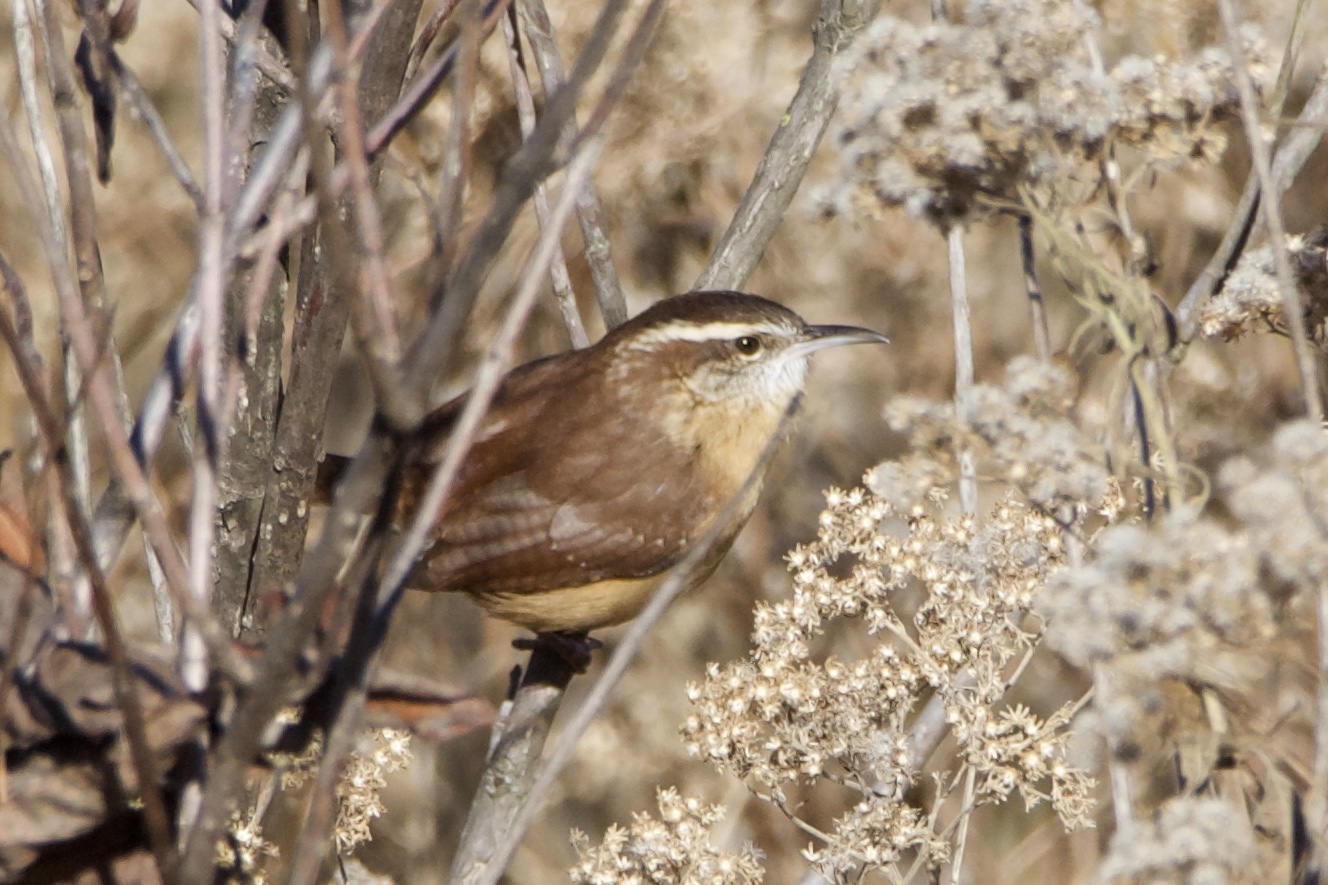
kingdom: Animalia
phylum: Chordata
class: Aves
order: Passeriformes
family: Troglodytidae
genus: Thryothorus
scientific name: Thryothorus ludovicianus
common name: Carolina wren
